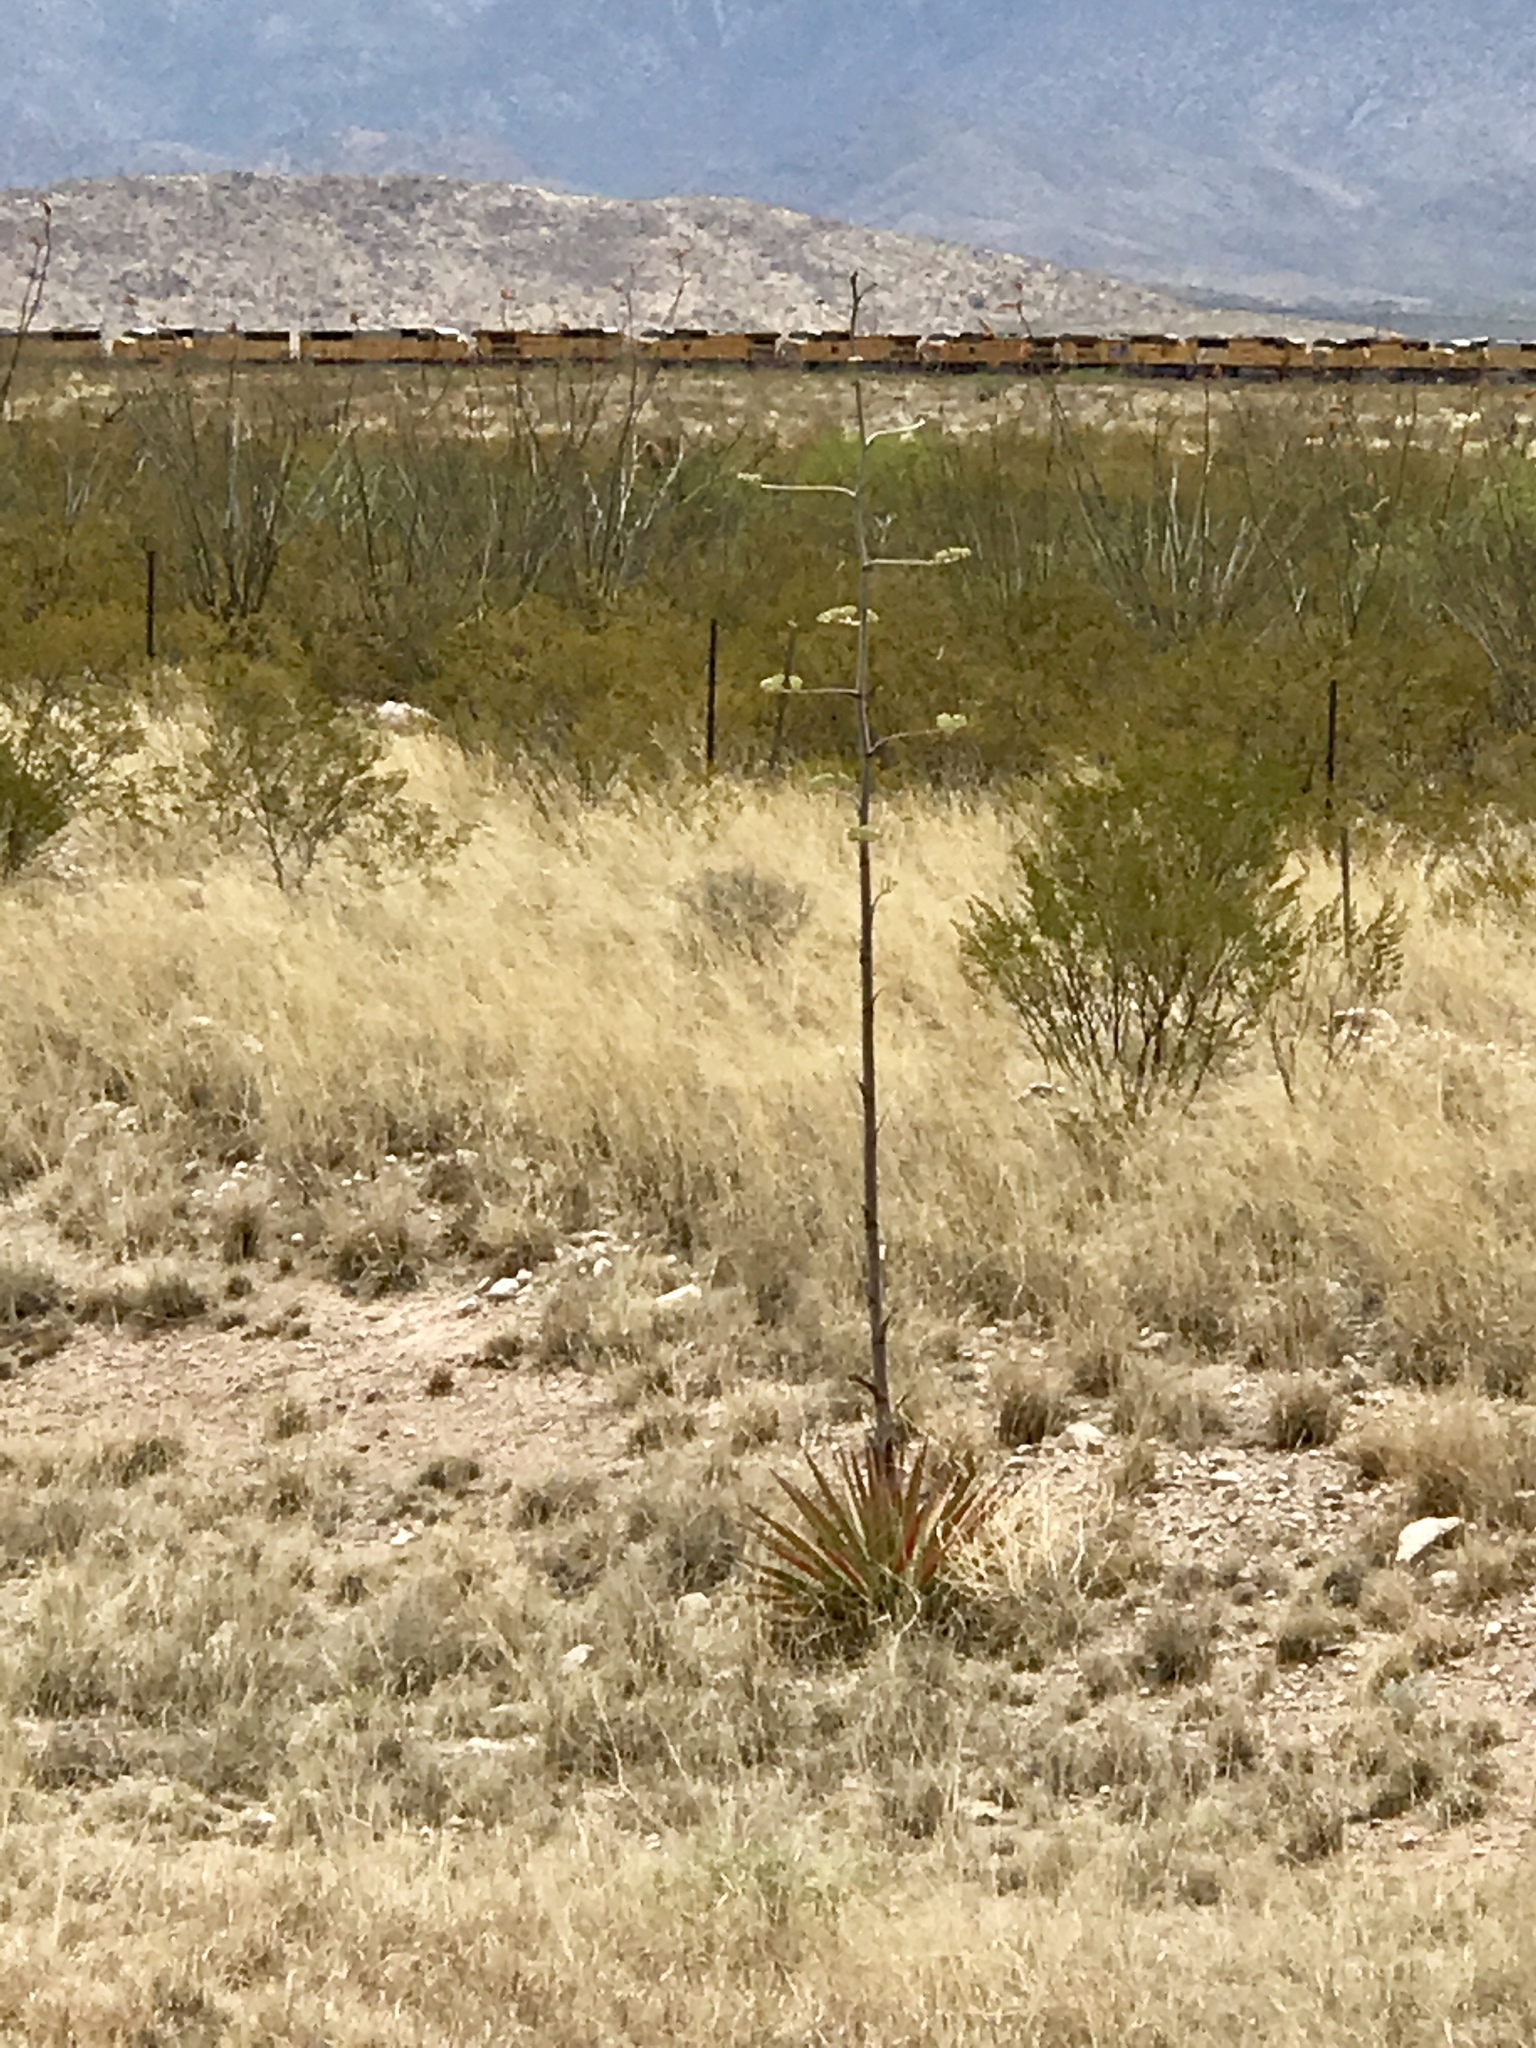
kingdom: Plantae
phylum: Tracheophyta
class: Liliopsida
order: Asparagales
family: Asparagaceae
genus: Agave
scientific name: Agave palmeri
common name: Palmer agave
